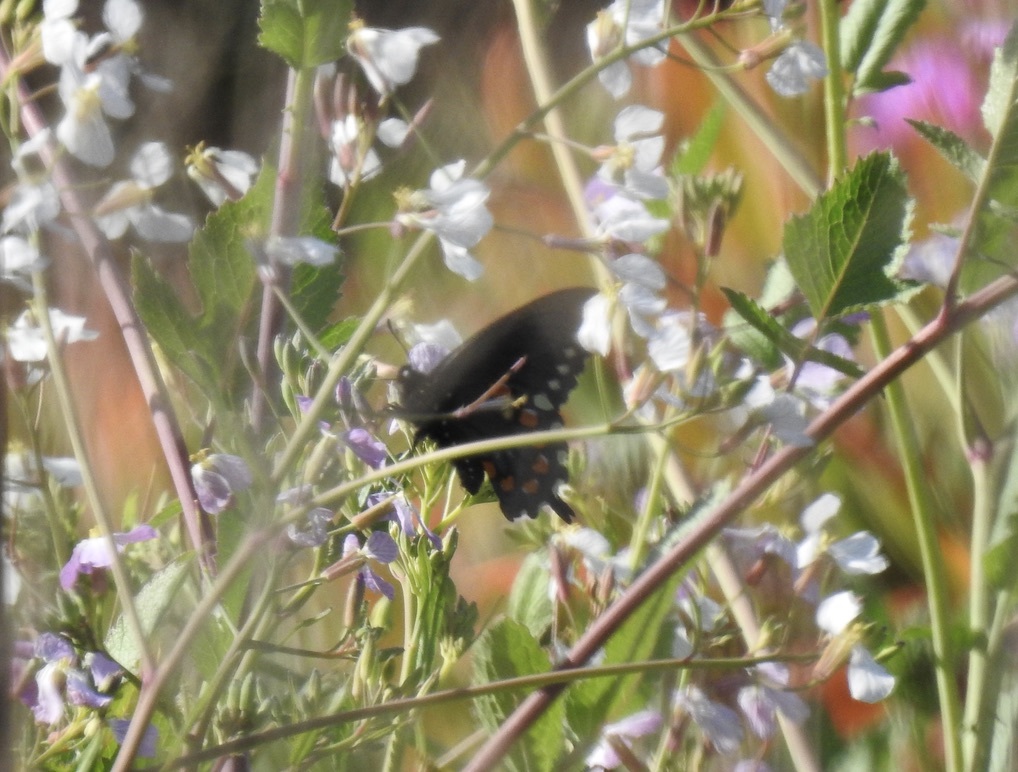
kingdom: Animalia
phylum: Arthropoda
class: Insecta
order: Lepidoptera
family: Papilionidae
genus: Battus
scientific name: Battus philenor
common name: Pipevine swallowtail
